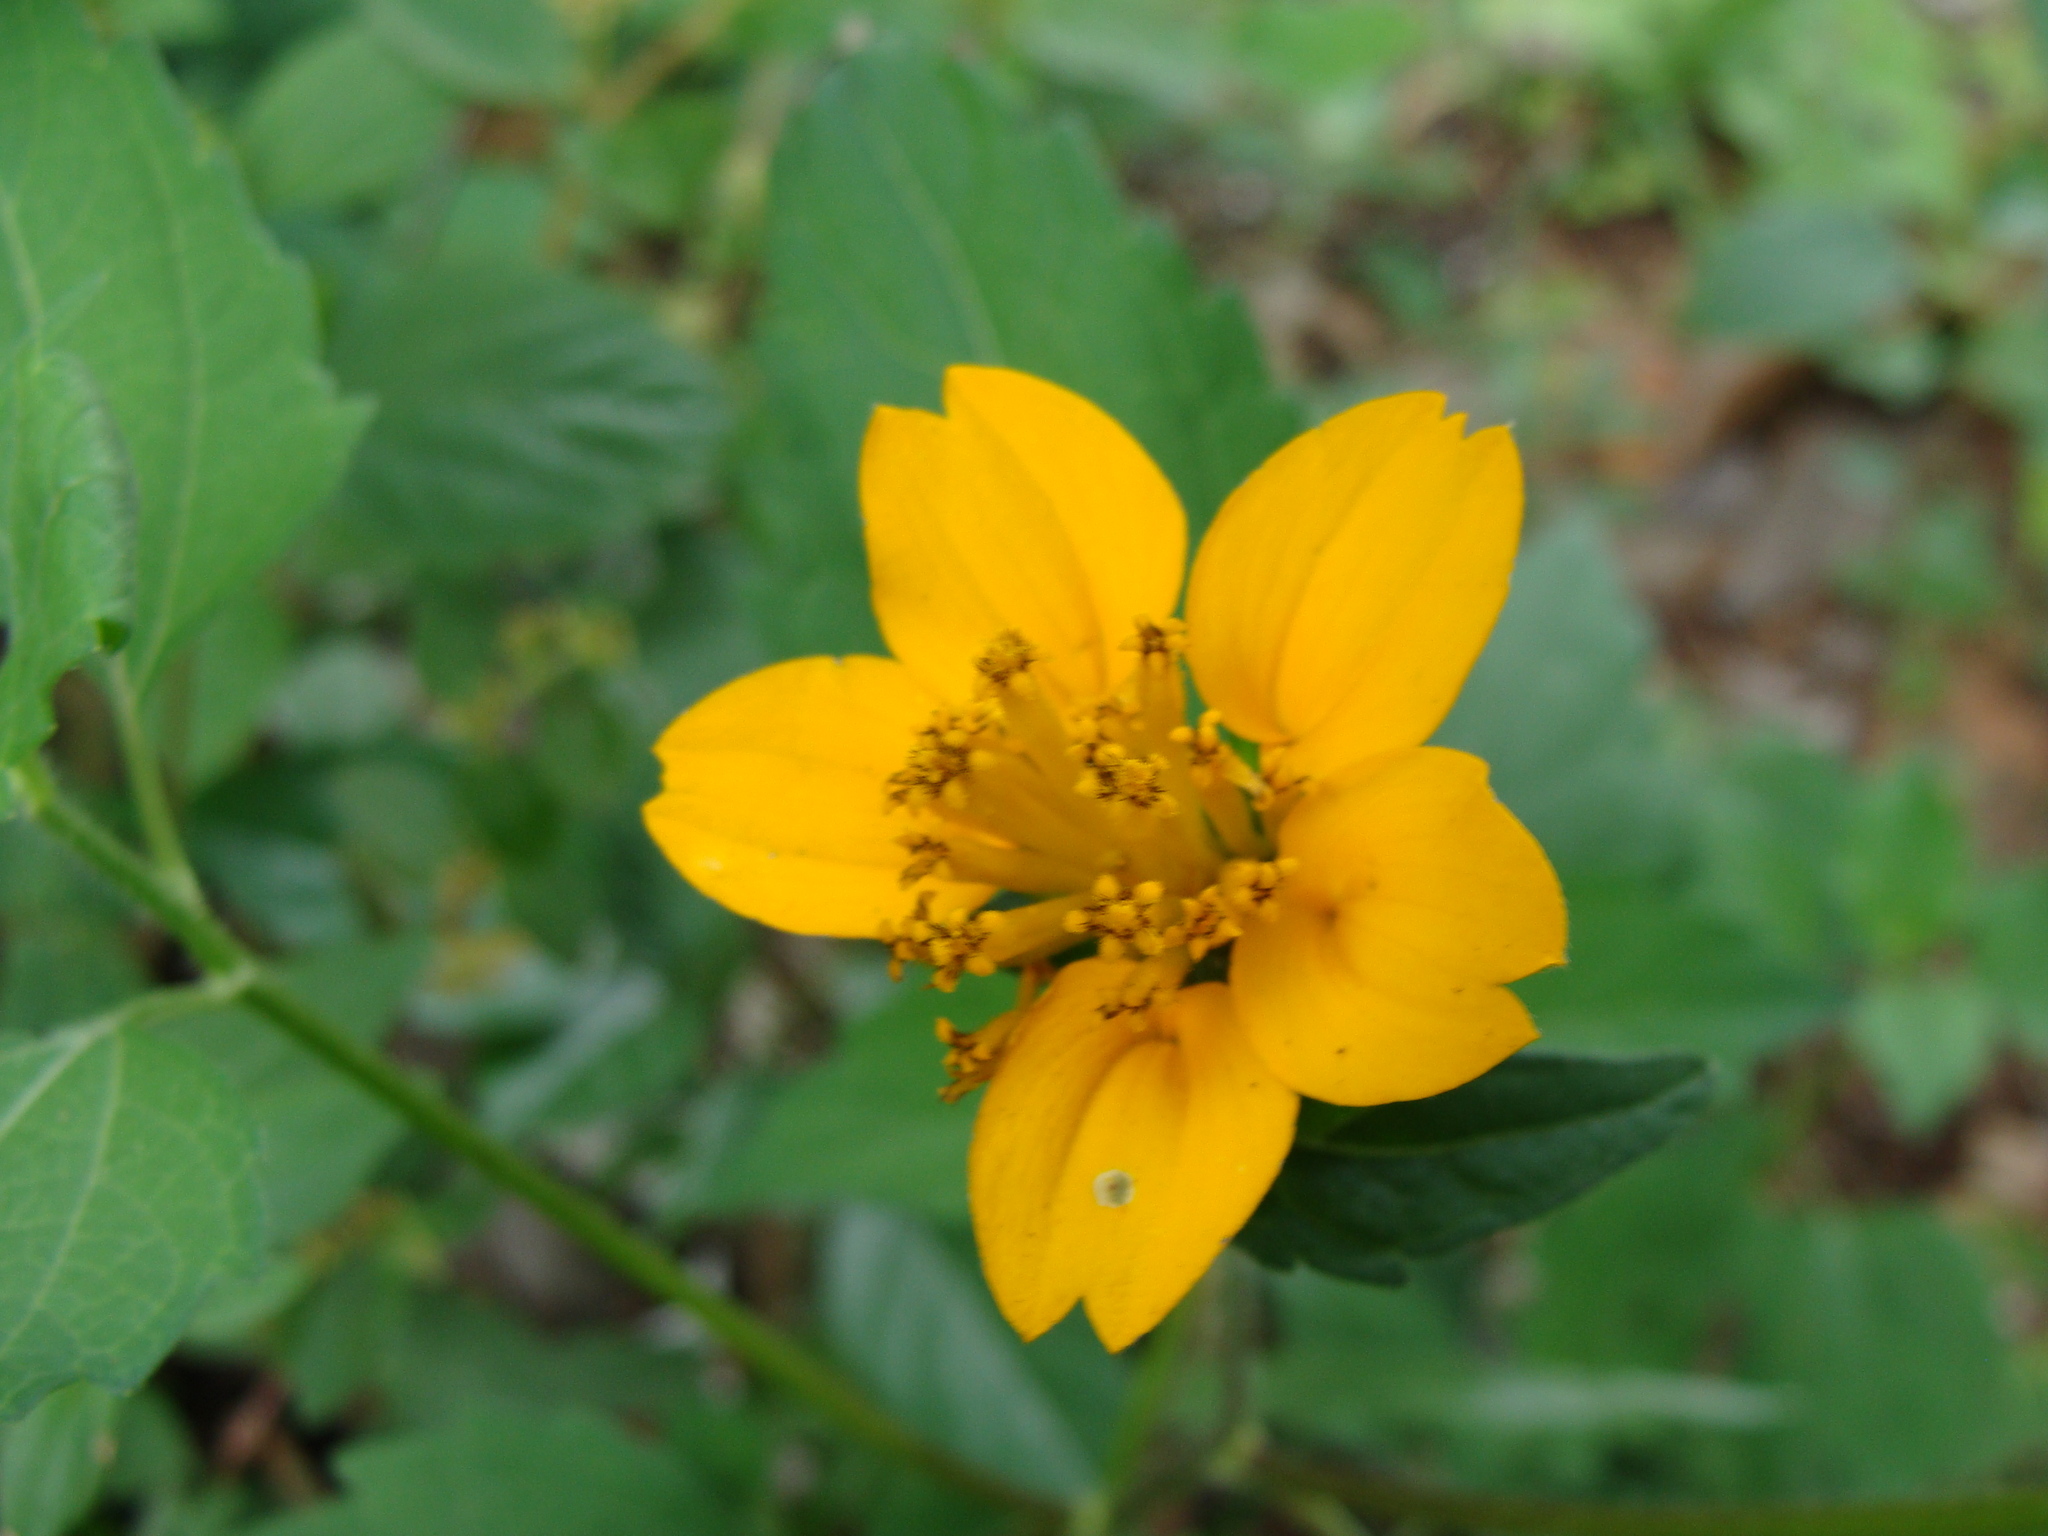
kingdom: Plantae
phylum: Tracheophyta
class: Magnoliopsida
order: Asterales
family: Asteraceae
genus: Sclerocarpus
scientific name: Sclerocarpus divaricatus
